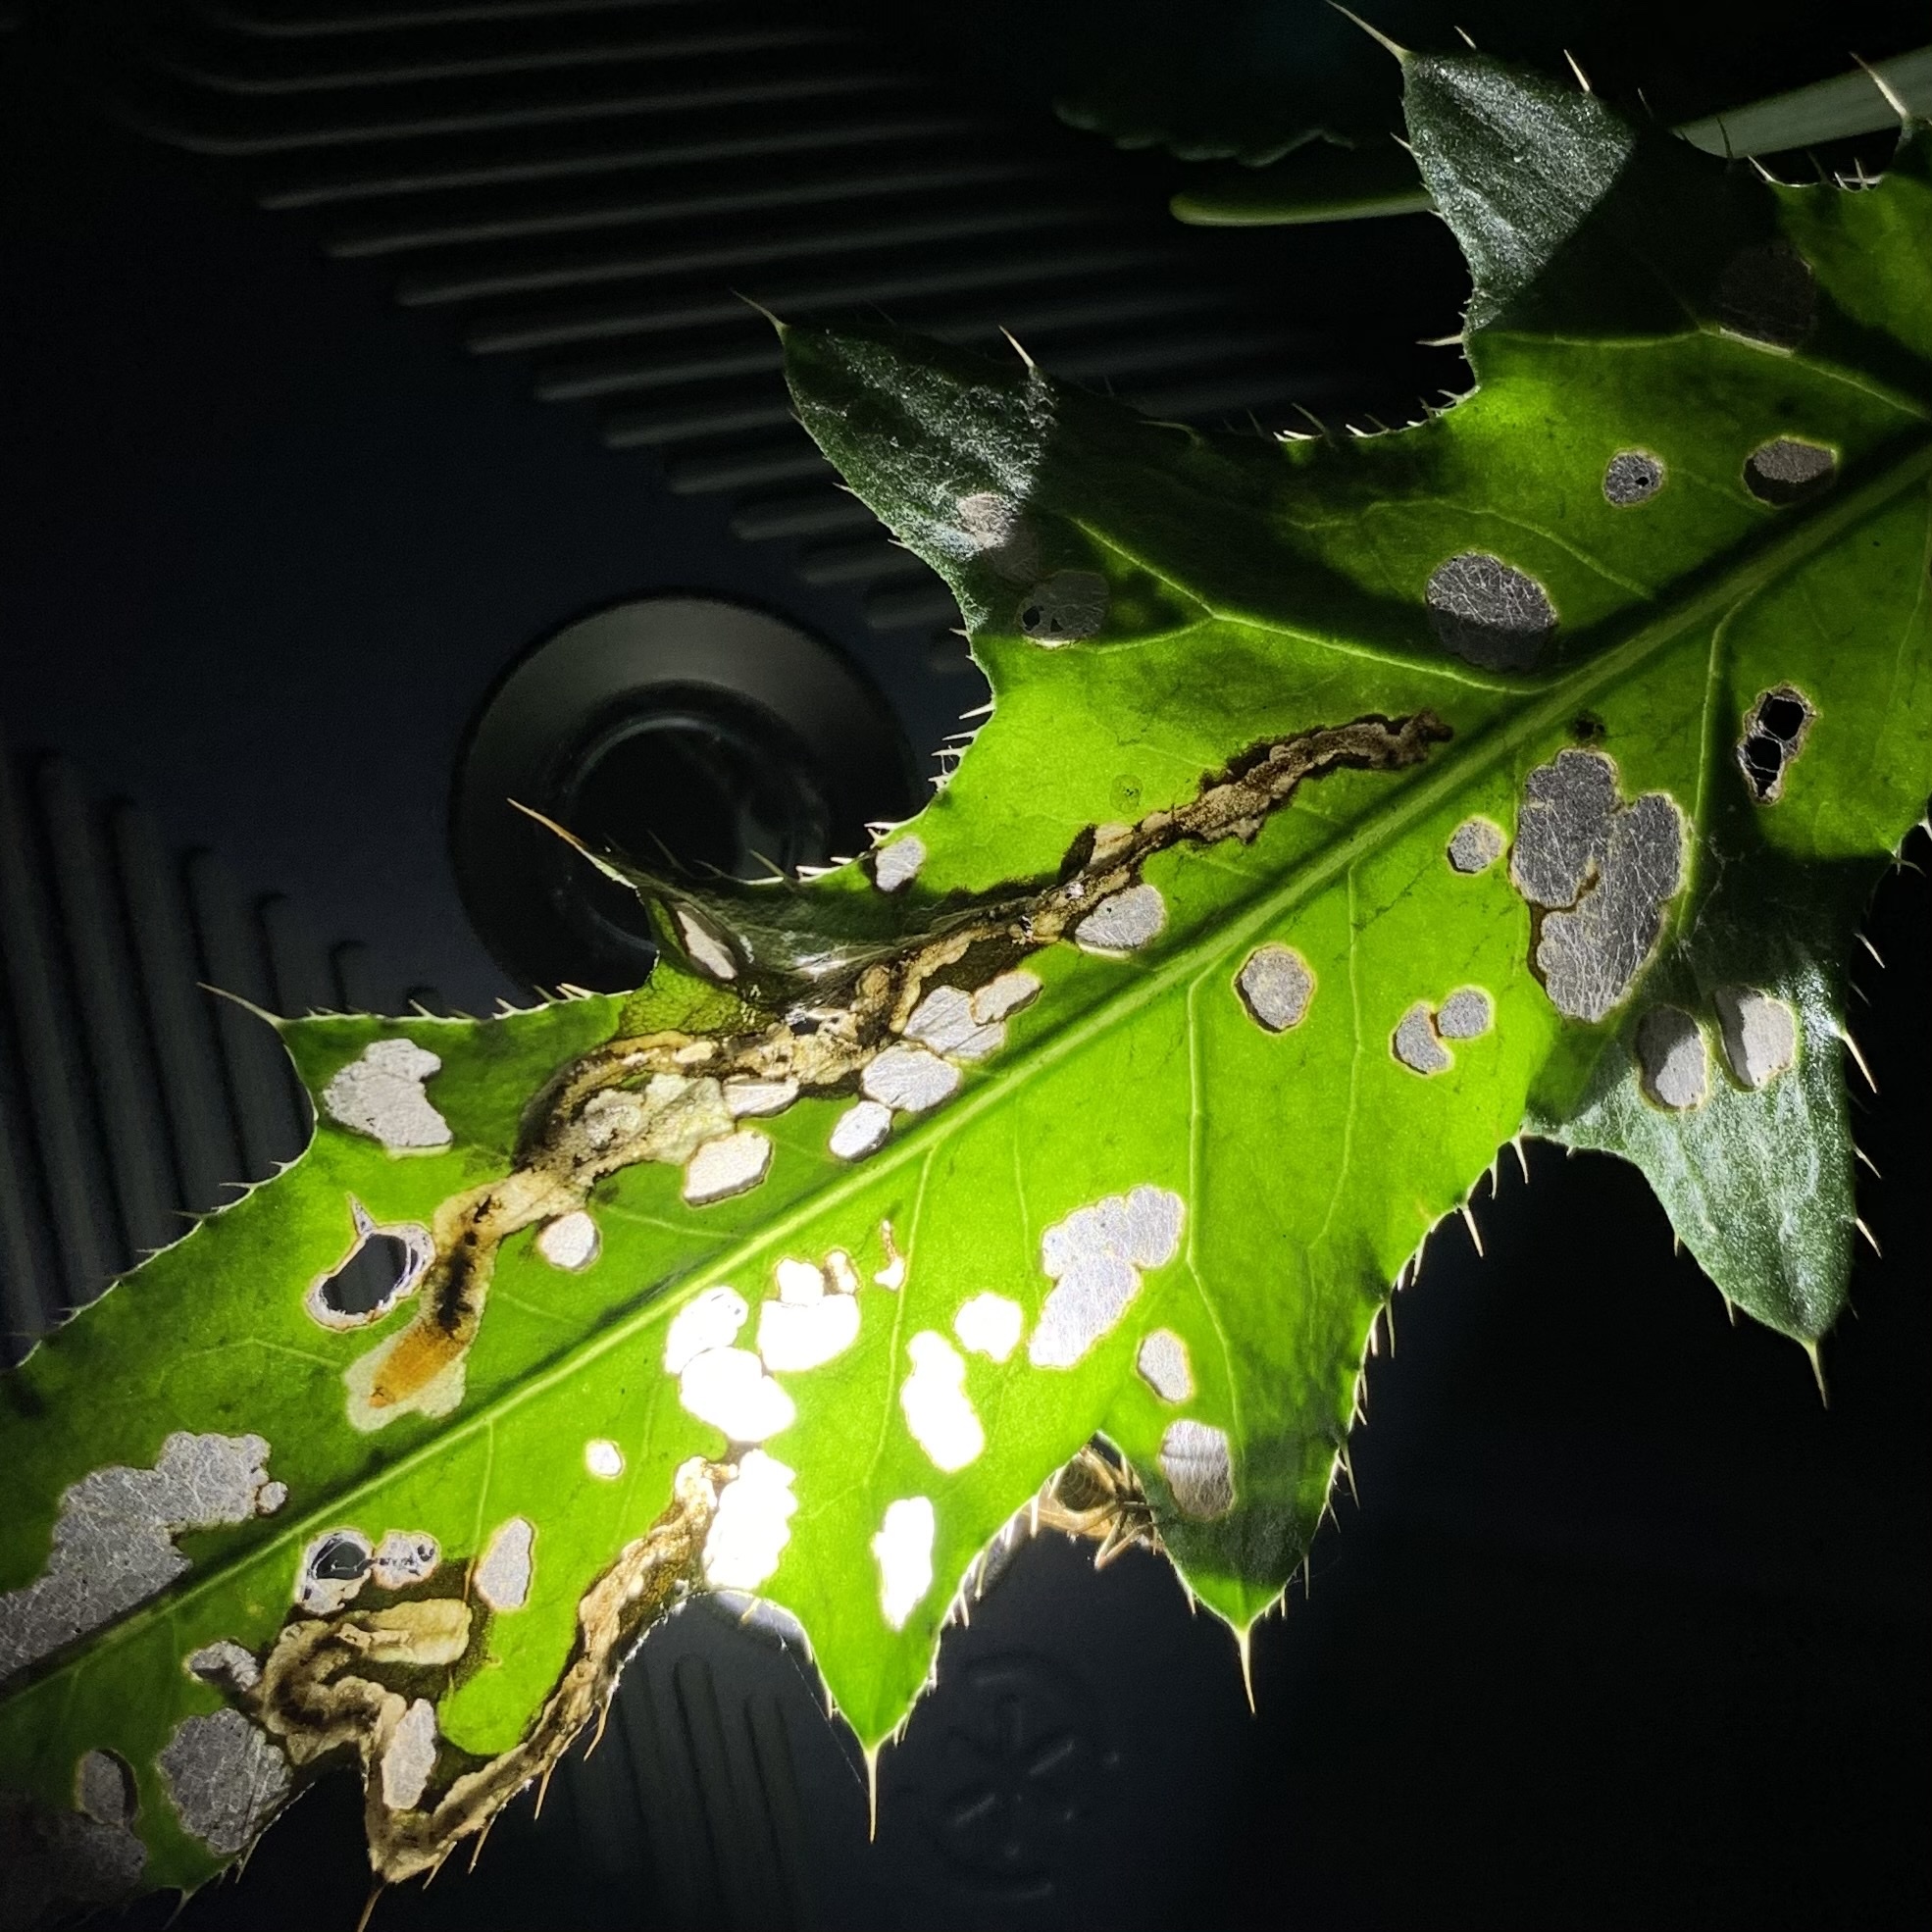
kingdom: Animalia
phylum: Arthropoda
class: Insecta
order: Coleoptera
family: Chrysomelidae
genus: Oulema
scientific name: Oulema palustris
